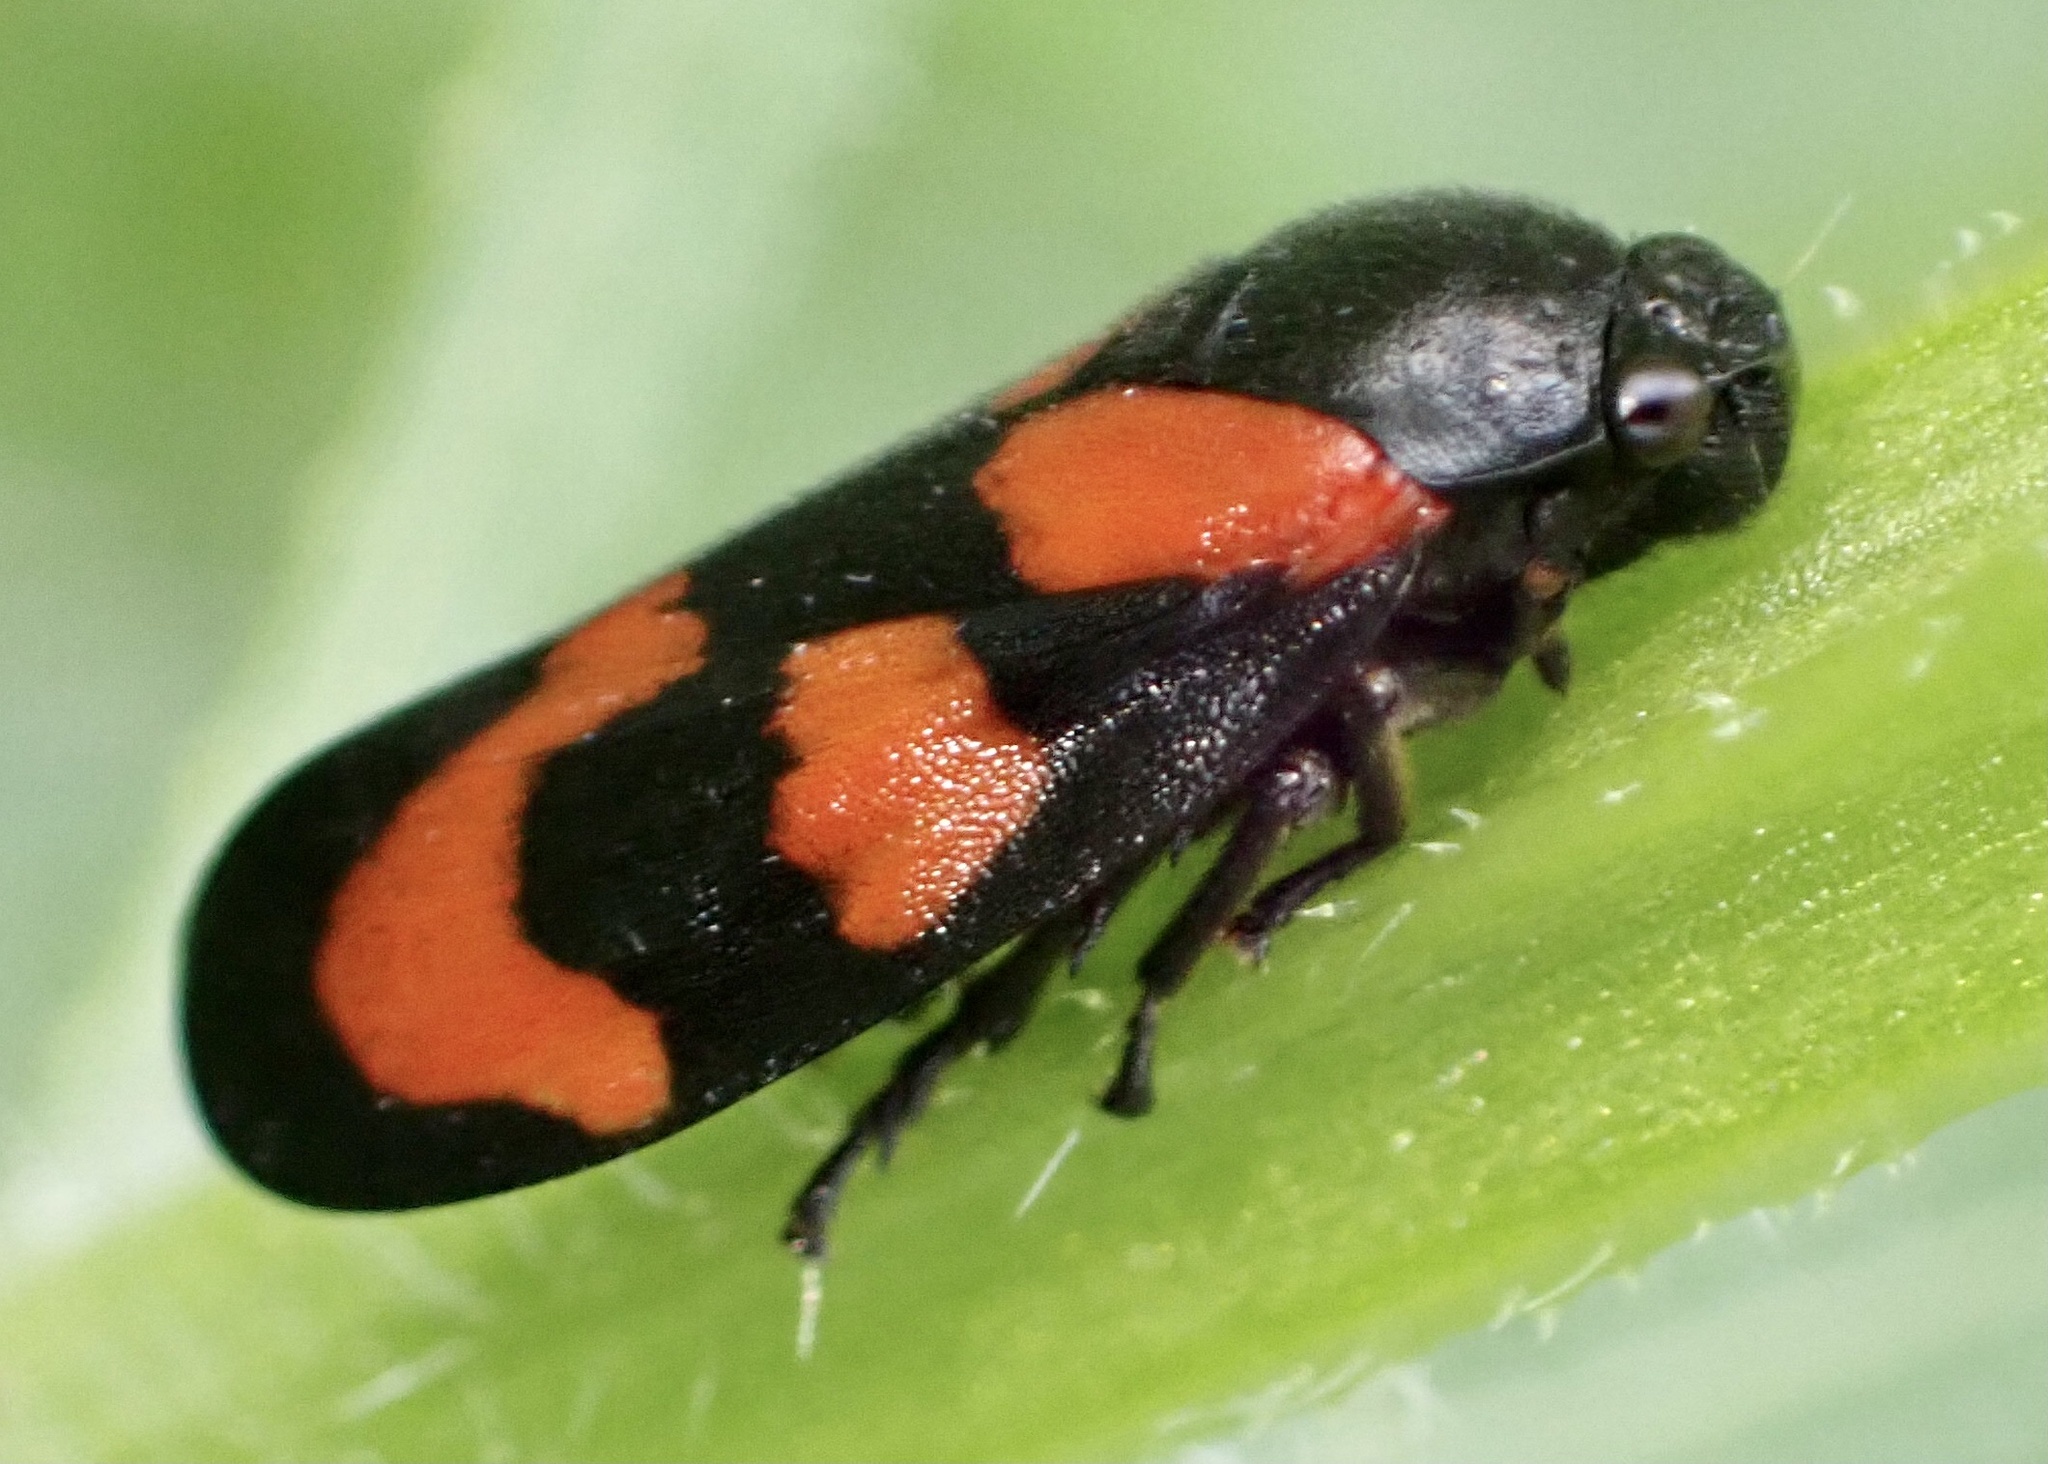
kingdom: Animalia
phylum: Arthropoda
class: Insecta
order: Hemiptera
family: Cercopidae
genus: Cercopis
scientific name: Cercopis vulnerata
